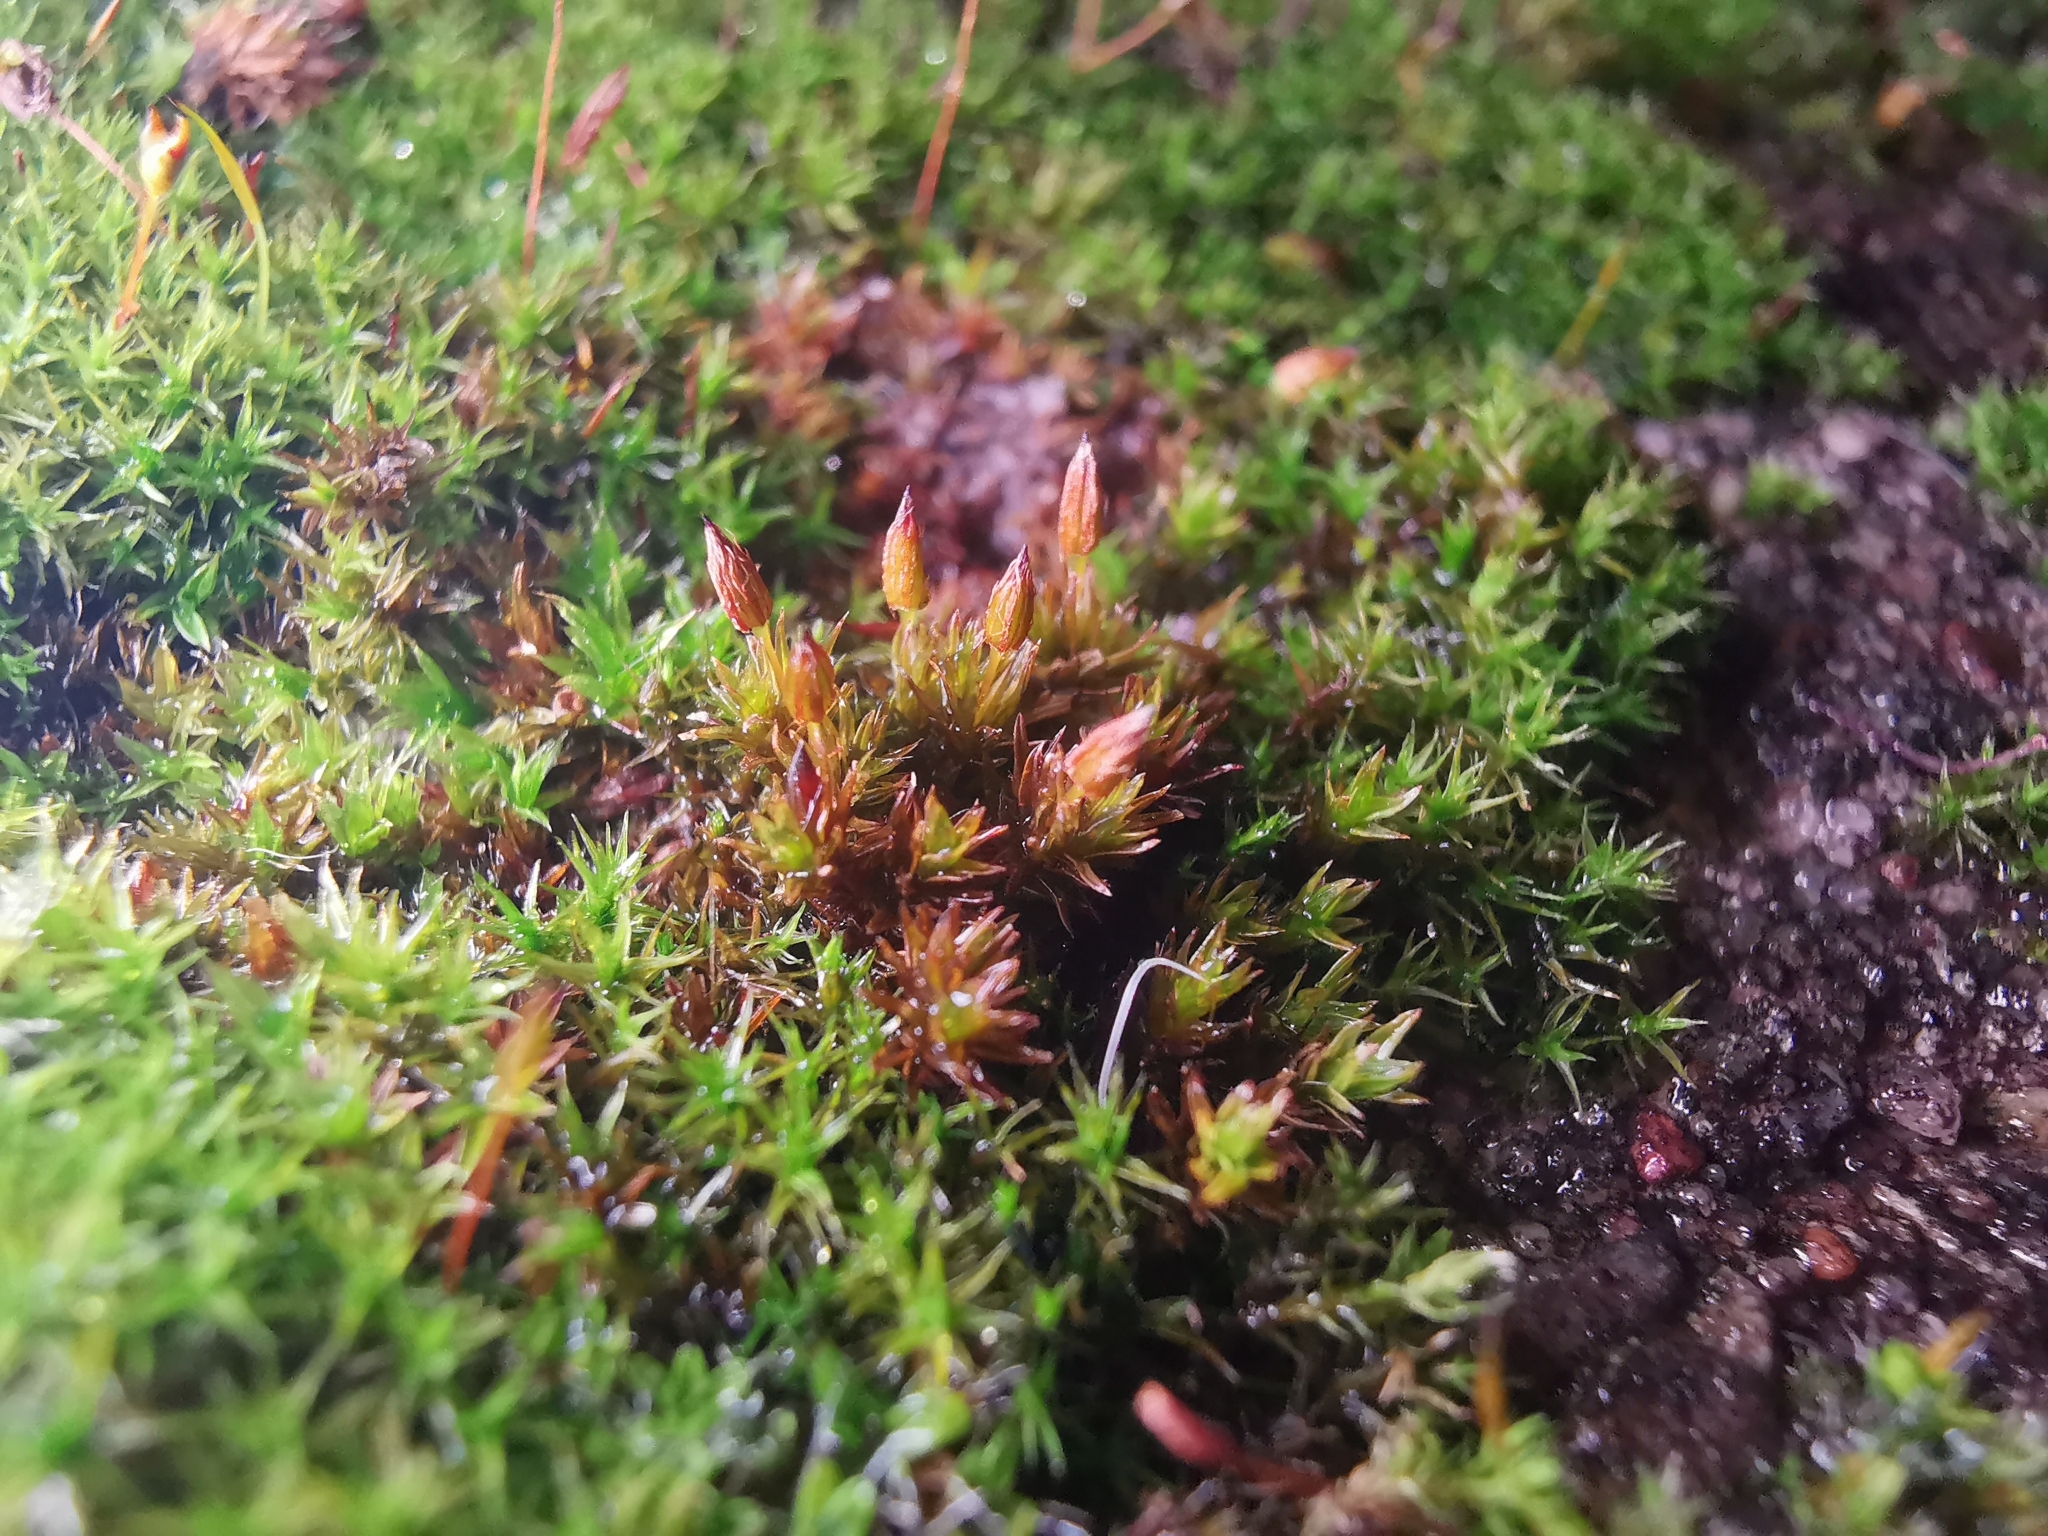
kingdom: Plantae
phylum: Bryophyta
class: Bryopsida
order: Orthotrichales
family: Orthotrichaceae
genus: Orthotrichum
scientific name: Orthotrichum anomalum
